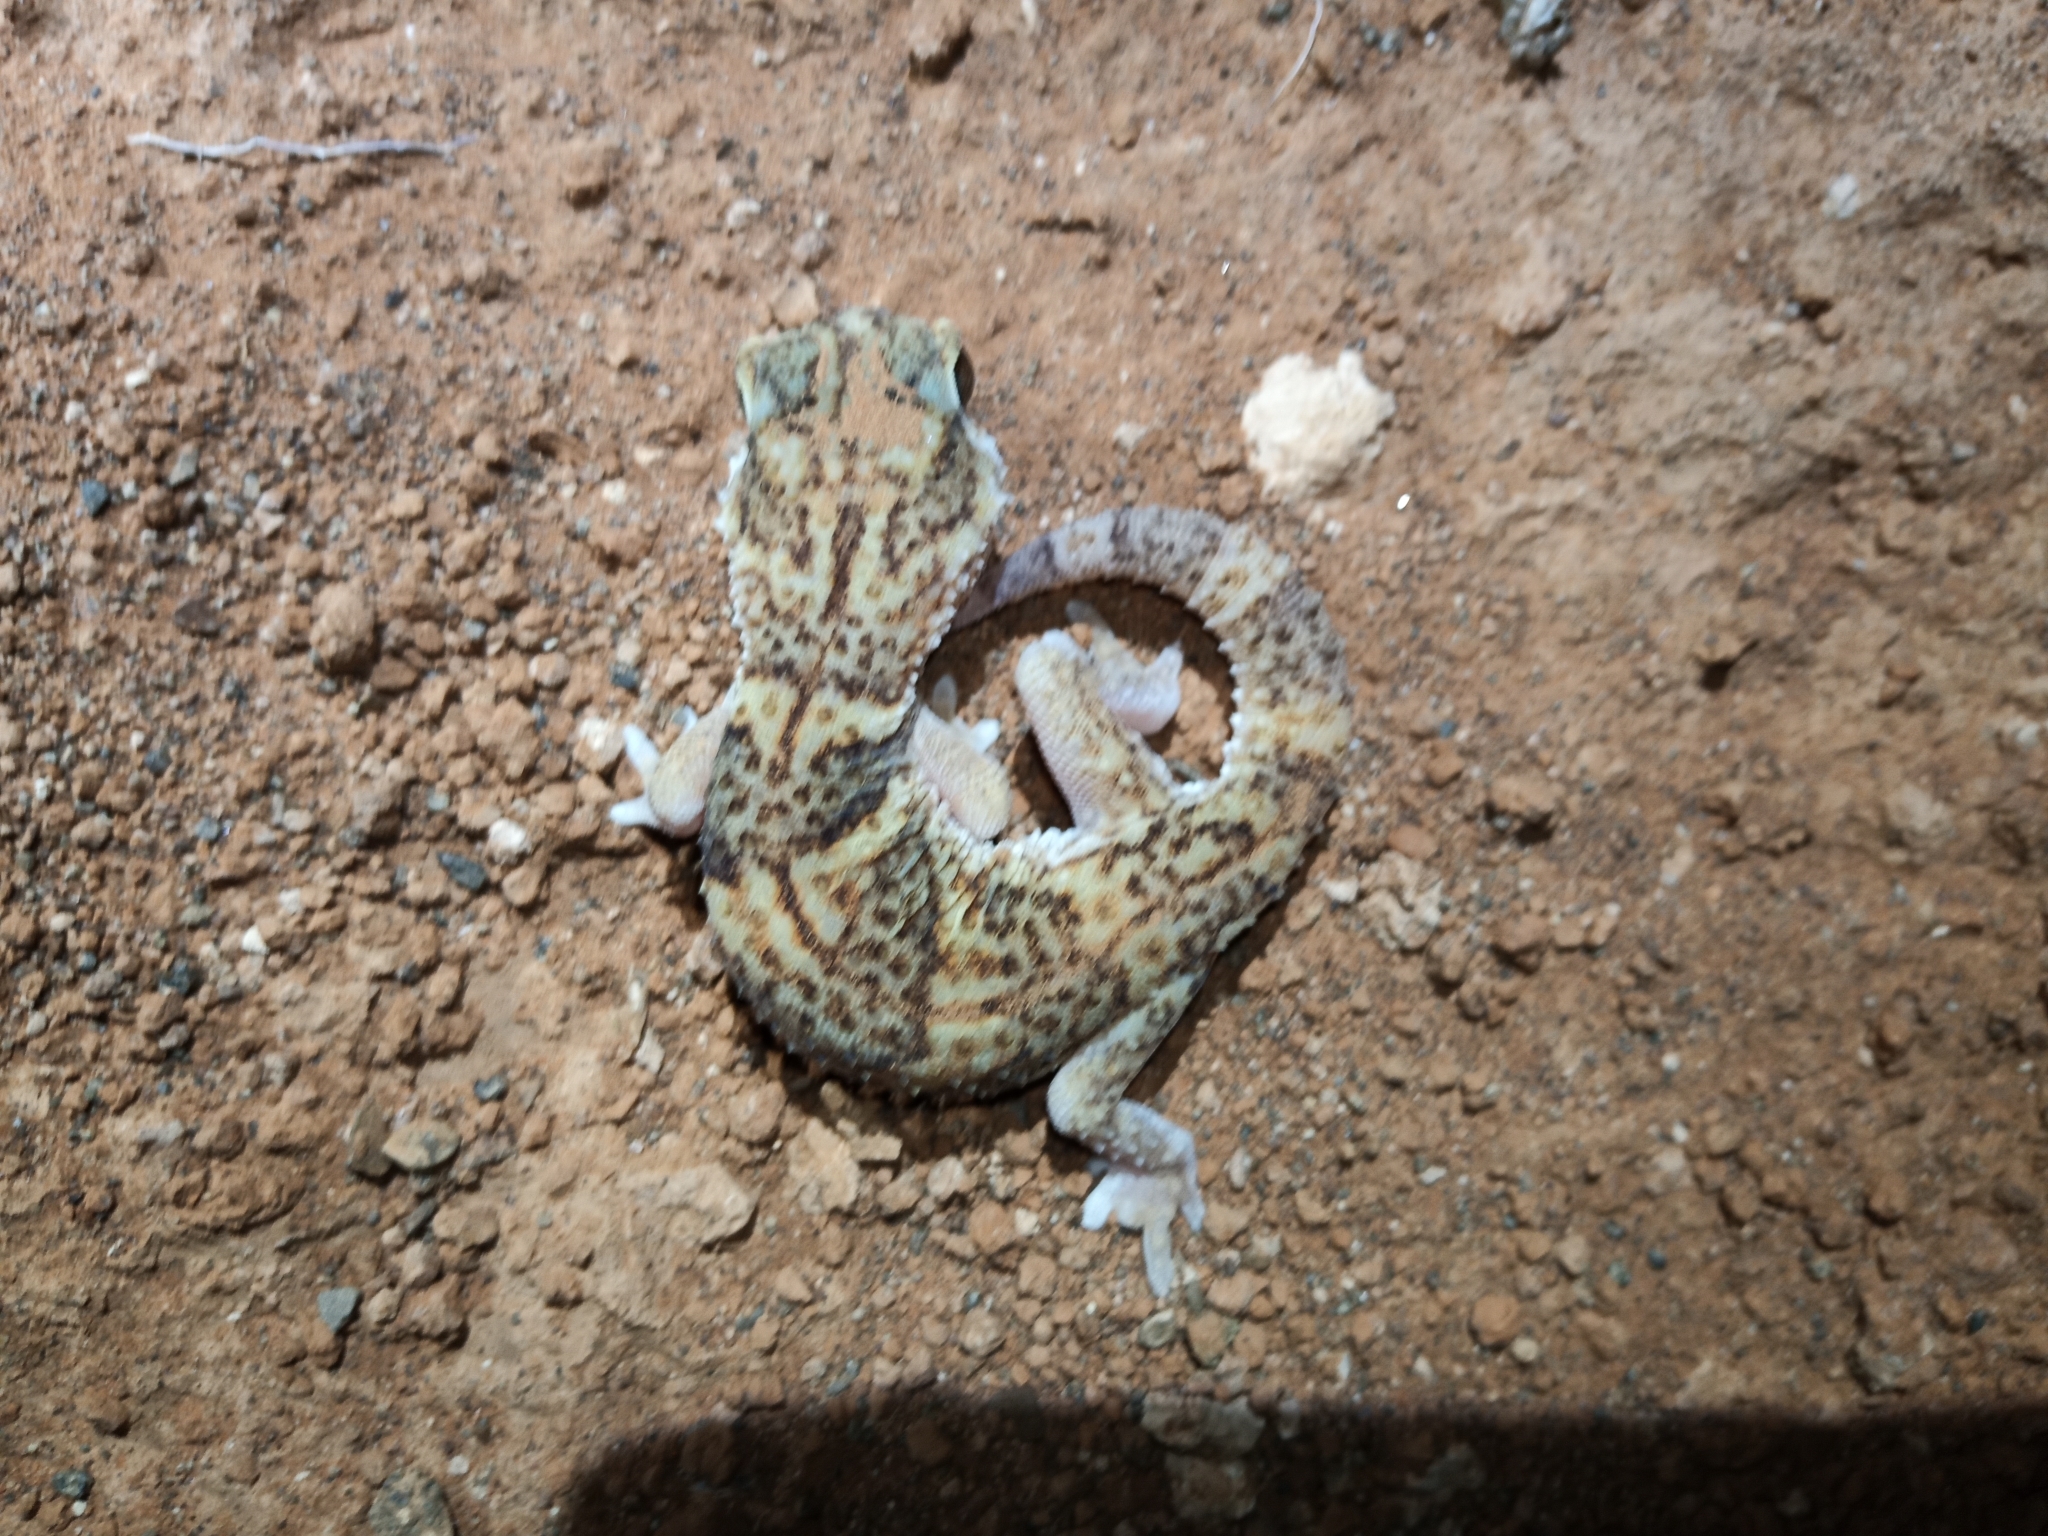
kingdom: Animalia
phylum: Chordata
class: Squamata
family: Gekkonidae
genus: Chondrodactylus
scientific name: Chondrodactylus angulifer
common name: Common giant ground gecko
